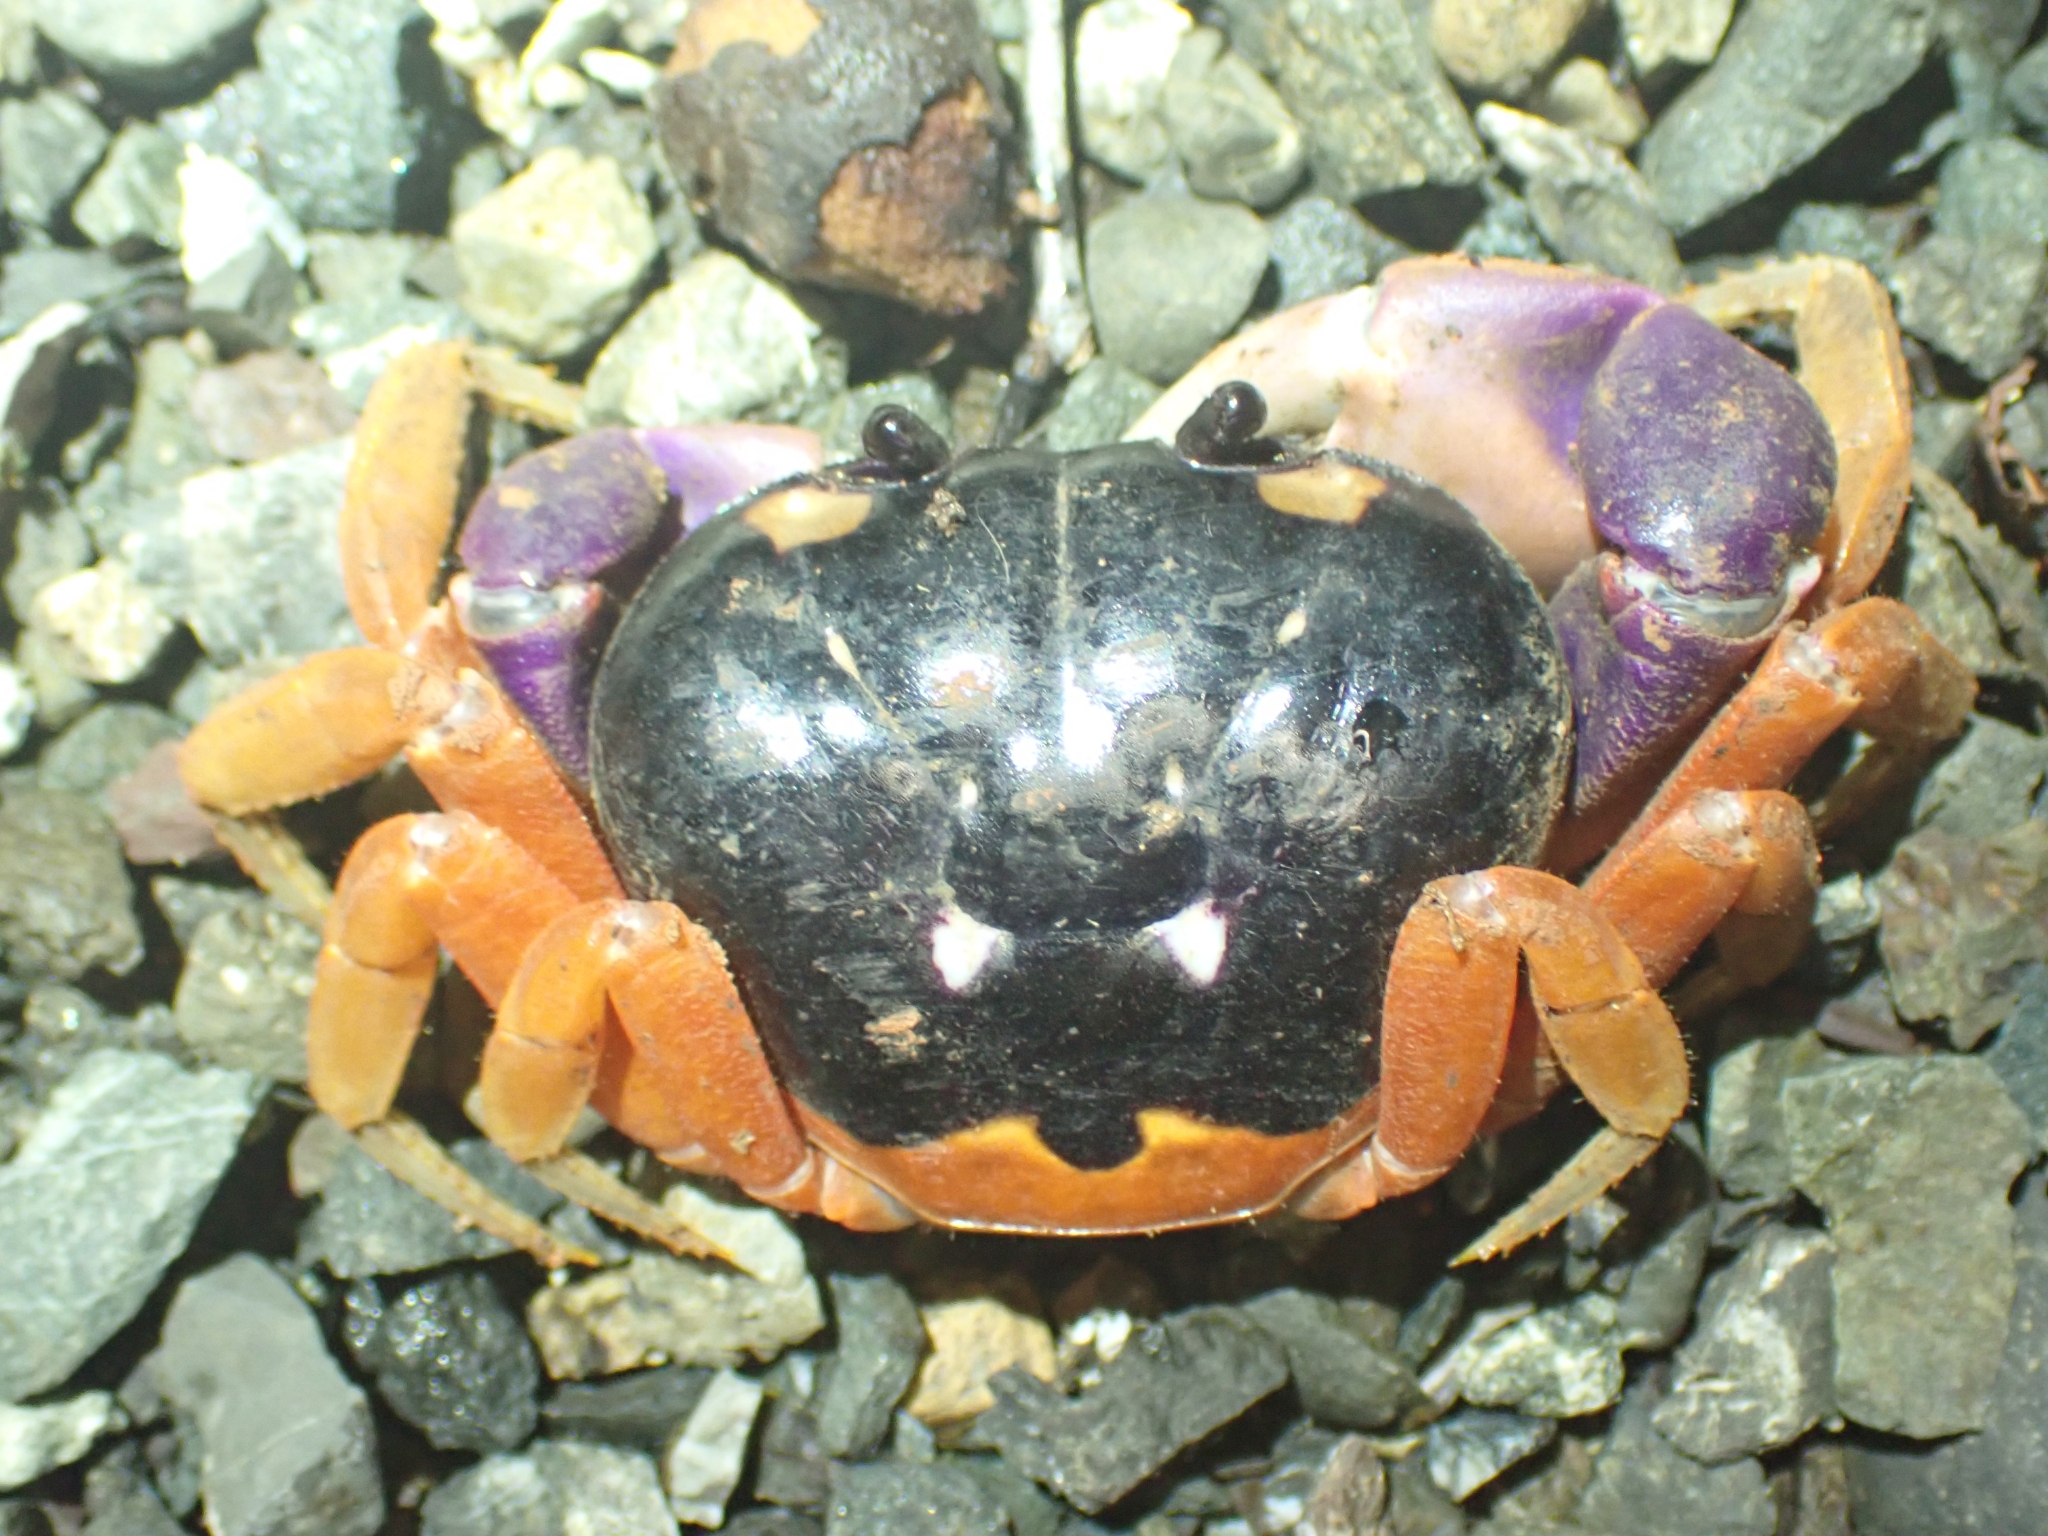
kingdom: Animalia
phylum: Arthropoda
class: Malacostraca
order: Decapoda
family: Gecarcinidae
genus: Gecarcinus
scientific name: Gecarcinus quadratus
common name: Halloween crab
